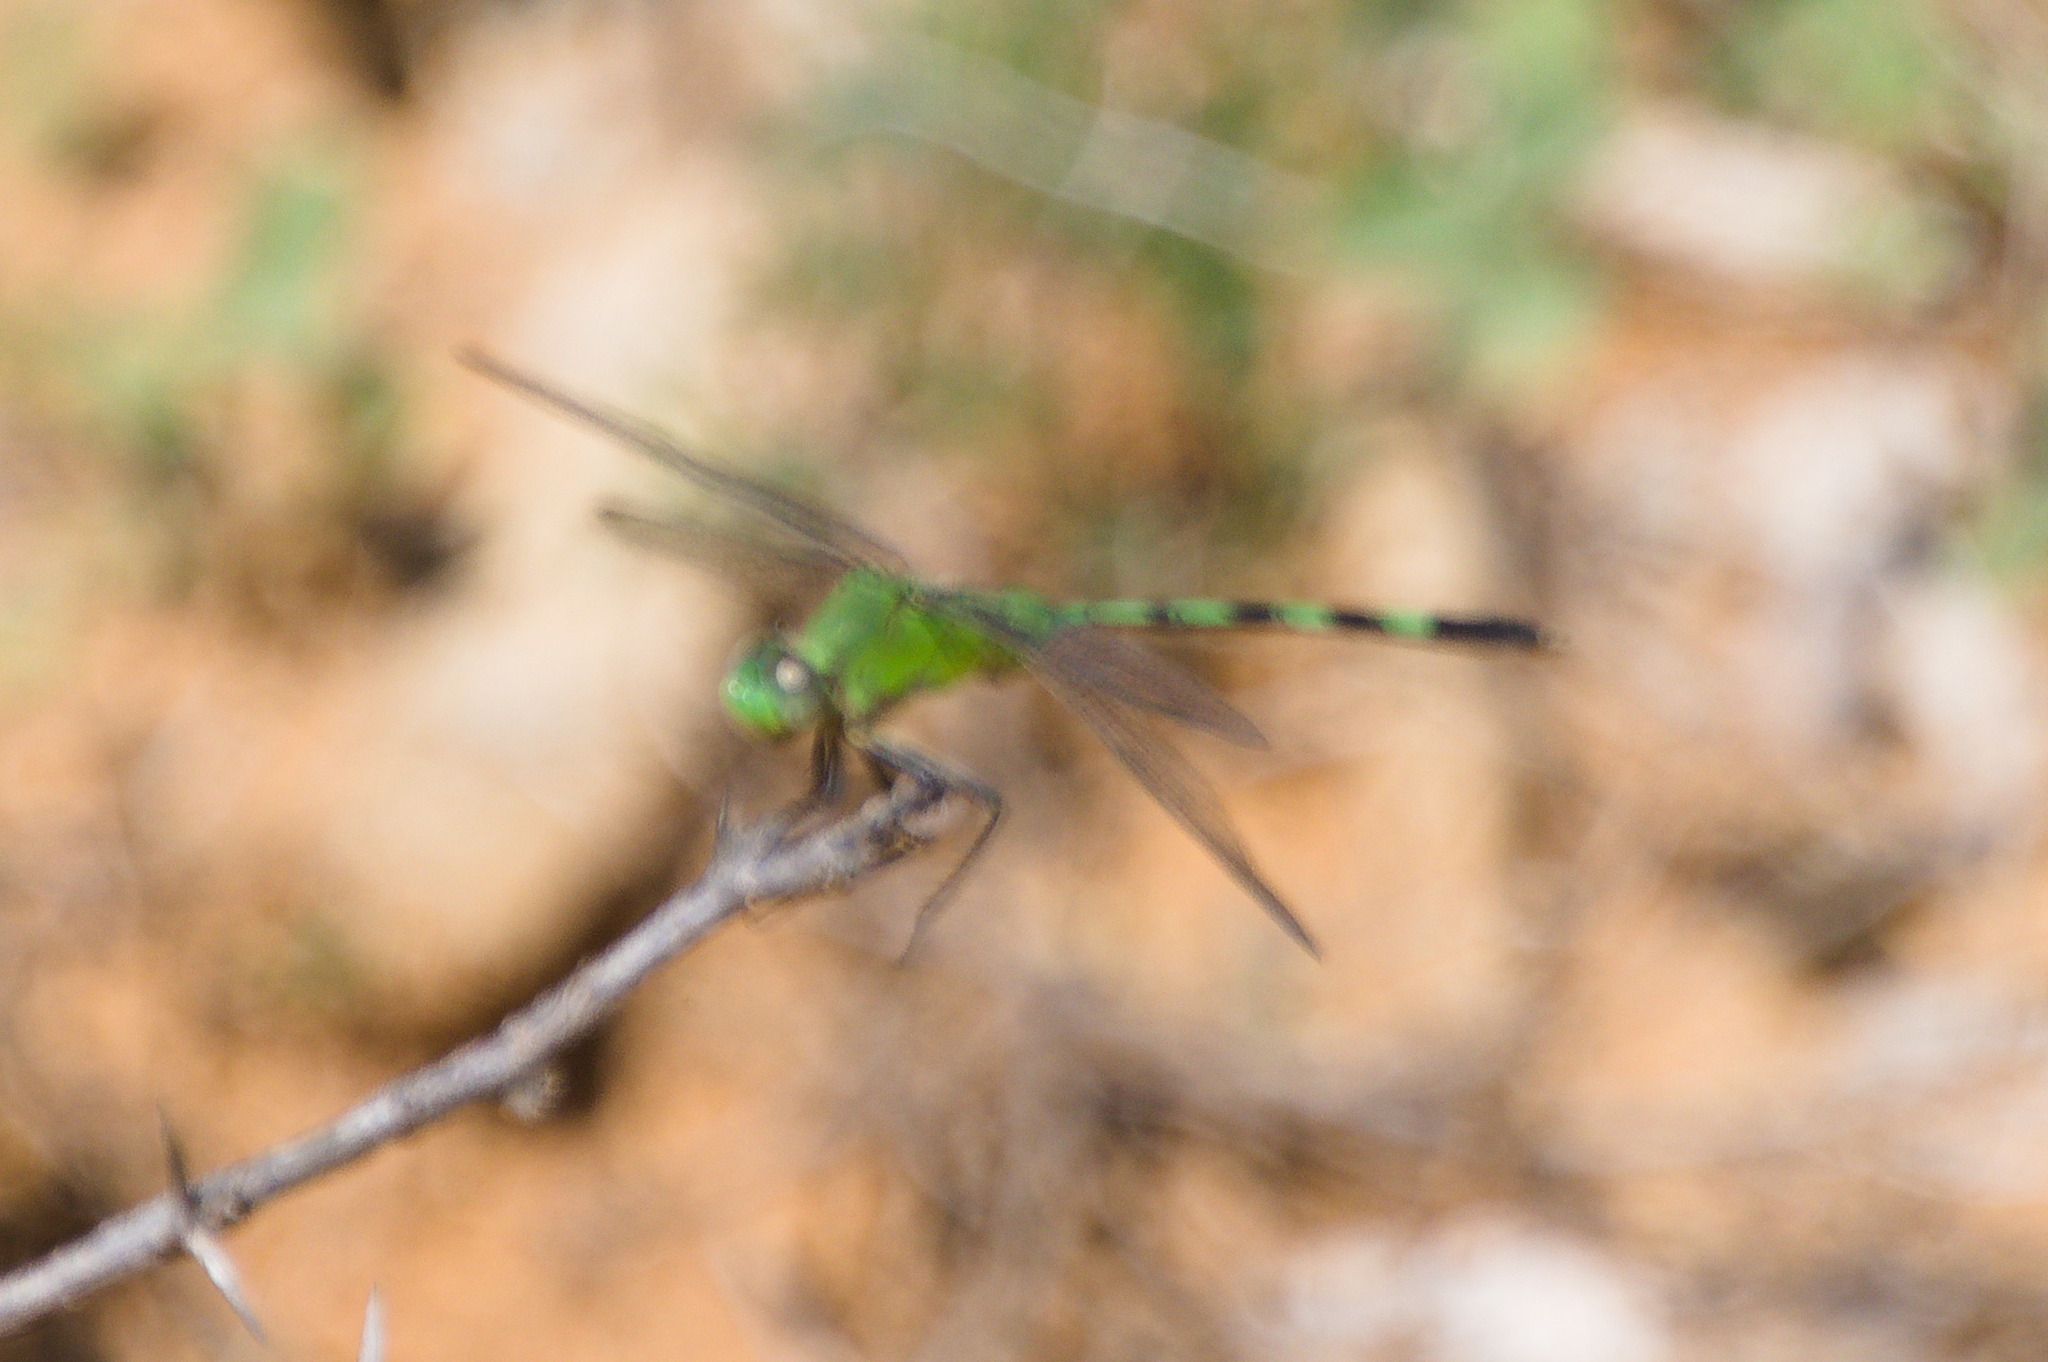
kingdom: Animalia
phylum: Arthropoda
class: Insecta
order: Odonata
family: Libellulidae
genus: Erythemis
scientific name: Erythemis vesiculosa
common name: Great pondhawk
